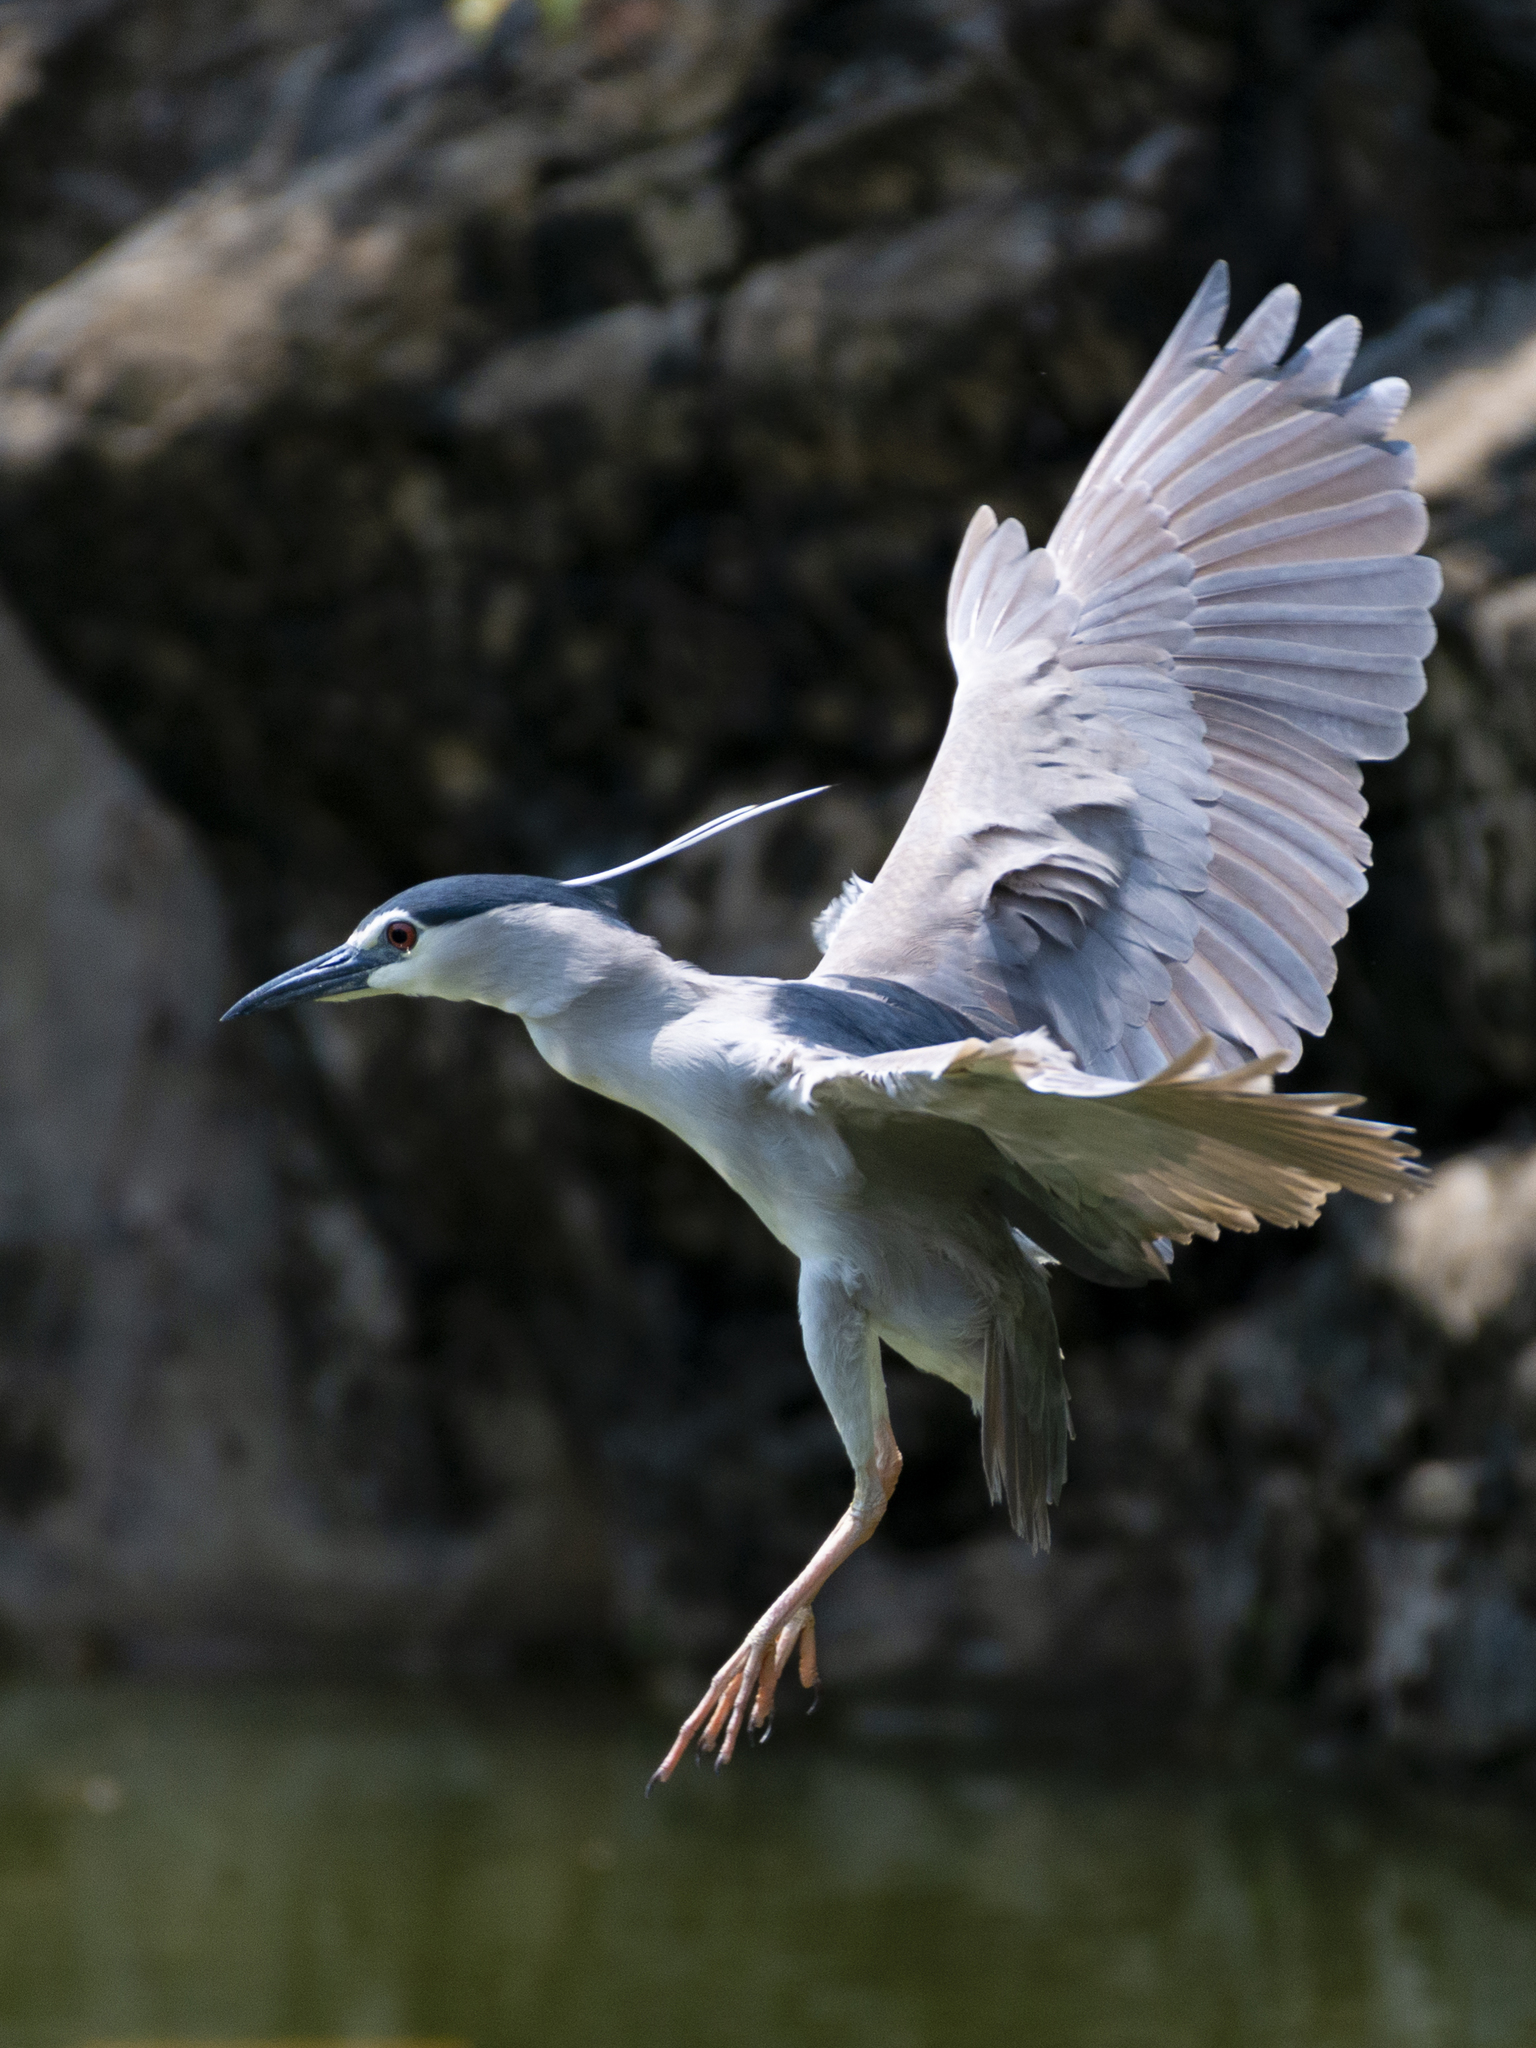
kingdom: Animalia
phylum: Chordata
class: Aves
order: Pelecaniformes
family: Ardeidae
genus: Nycticorax
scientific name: Nycticorax nycticorax
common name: Black-crowned night heron
